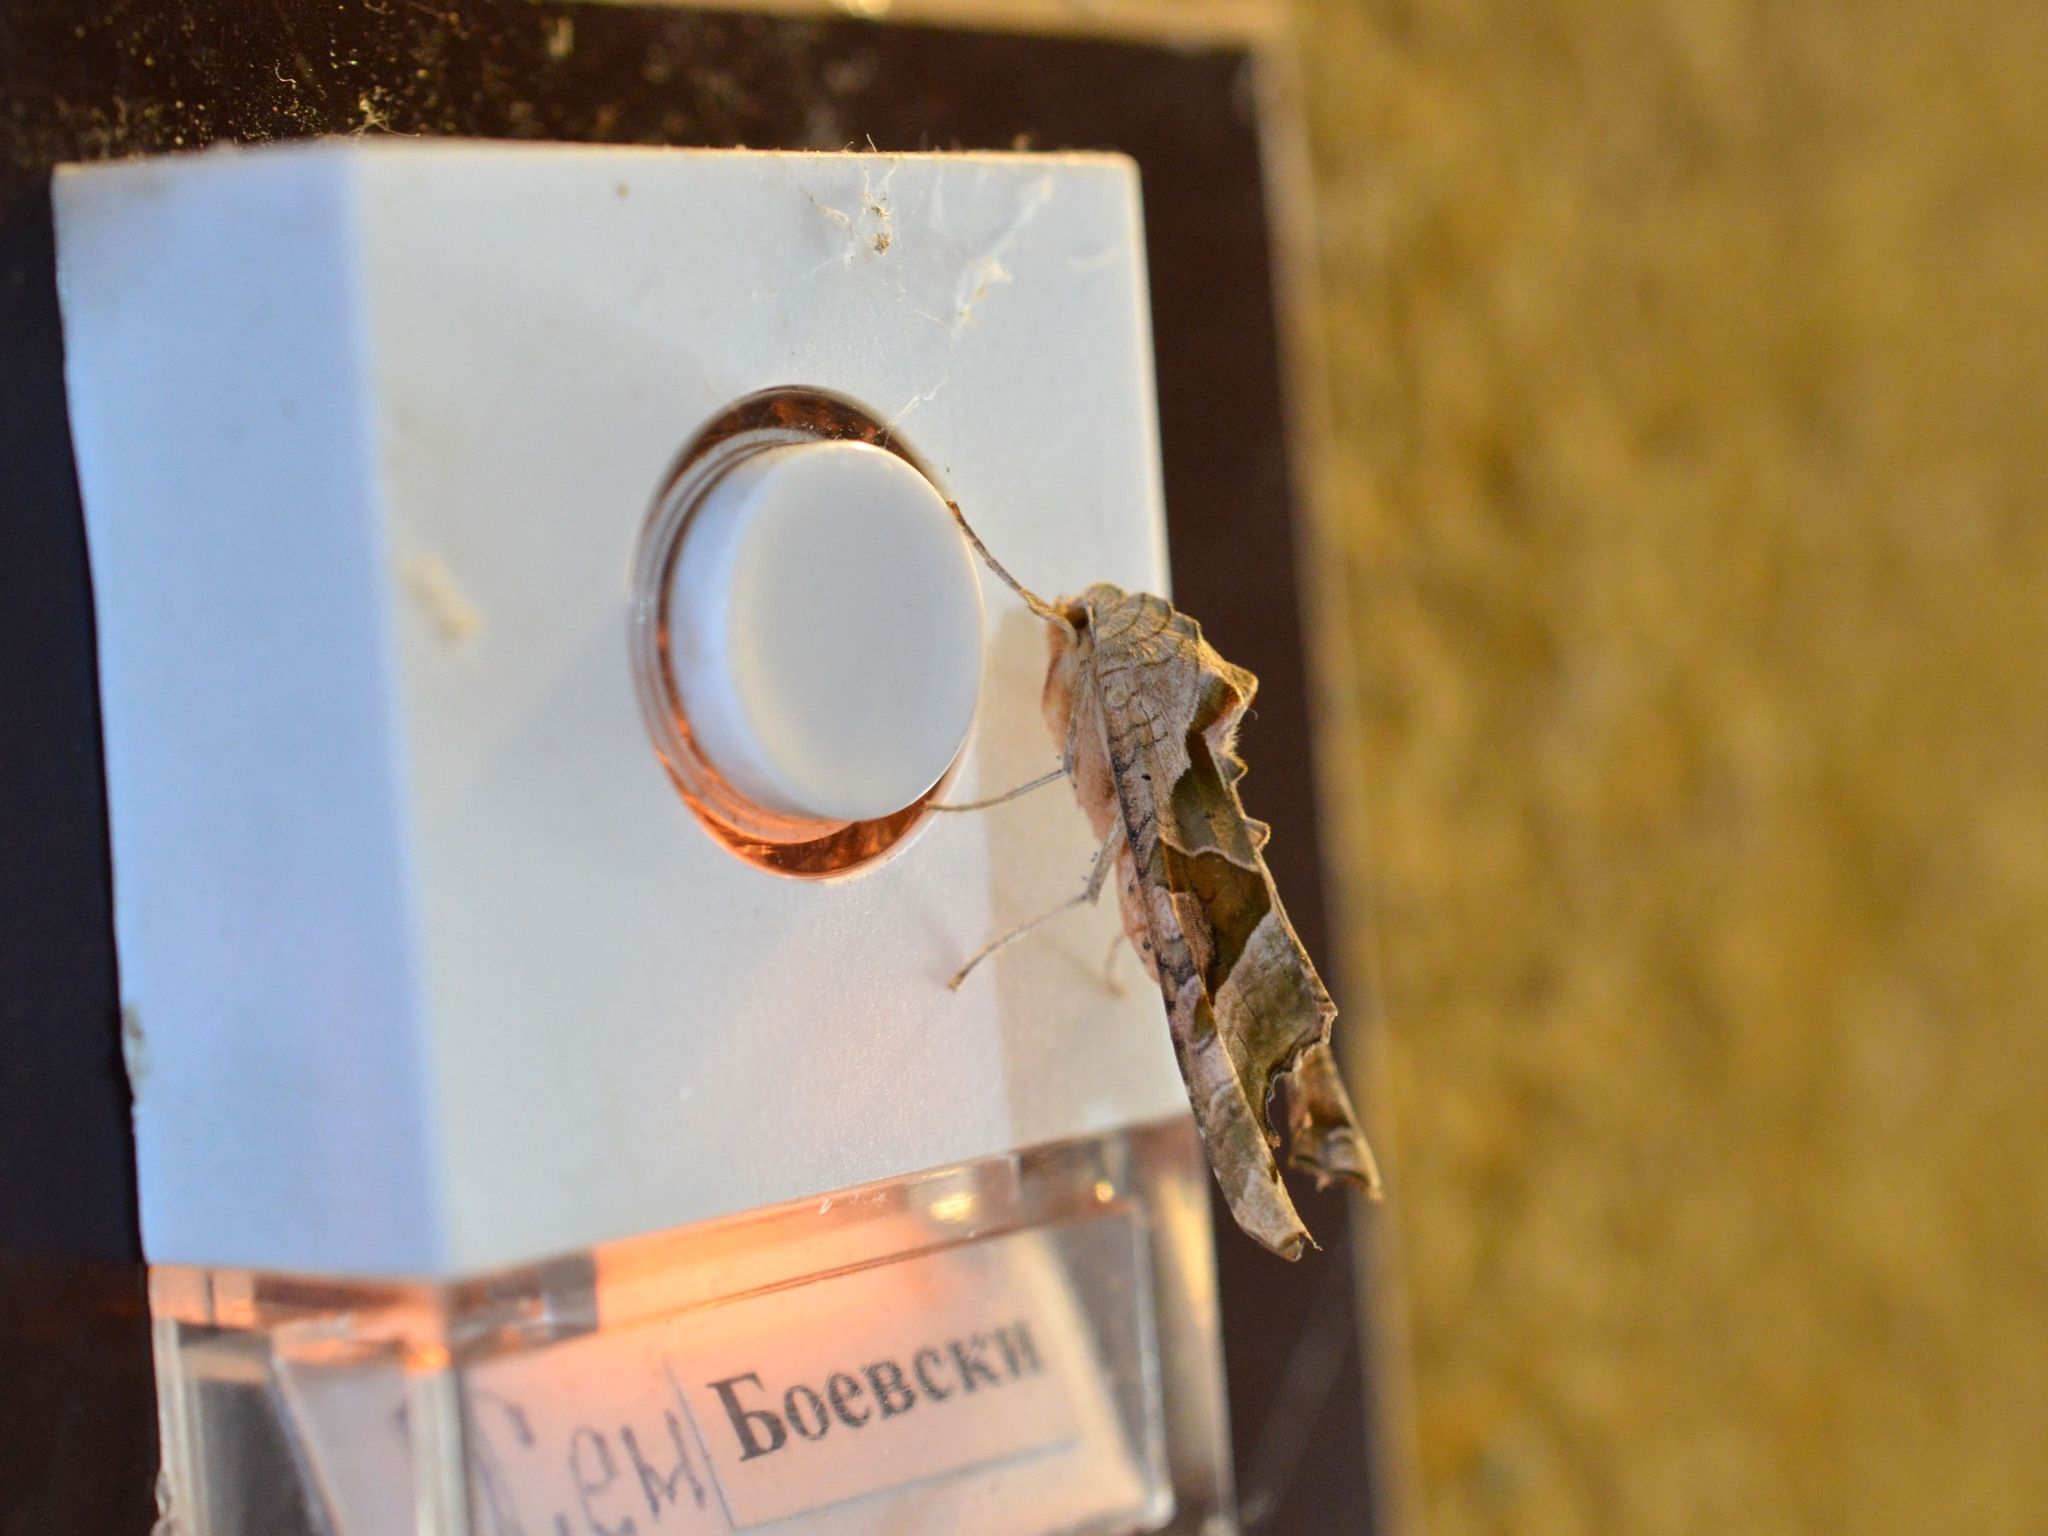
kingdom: Animalia
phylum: Arthropoda
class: Insecta
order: Lepidoptera
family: Noctuidae
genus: Phlogophora
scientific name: Phlogophora meticulosa
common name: Angle shades
